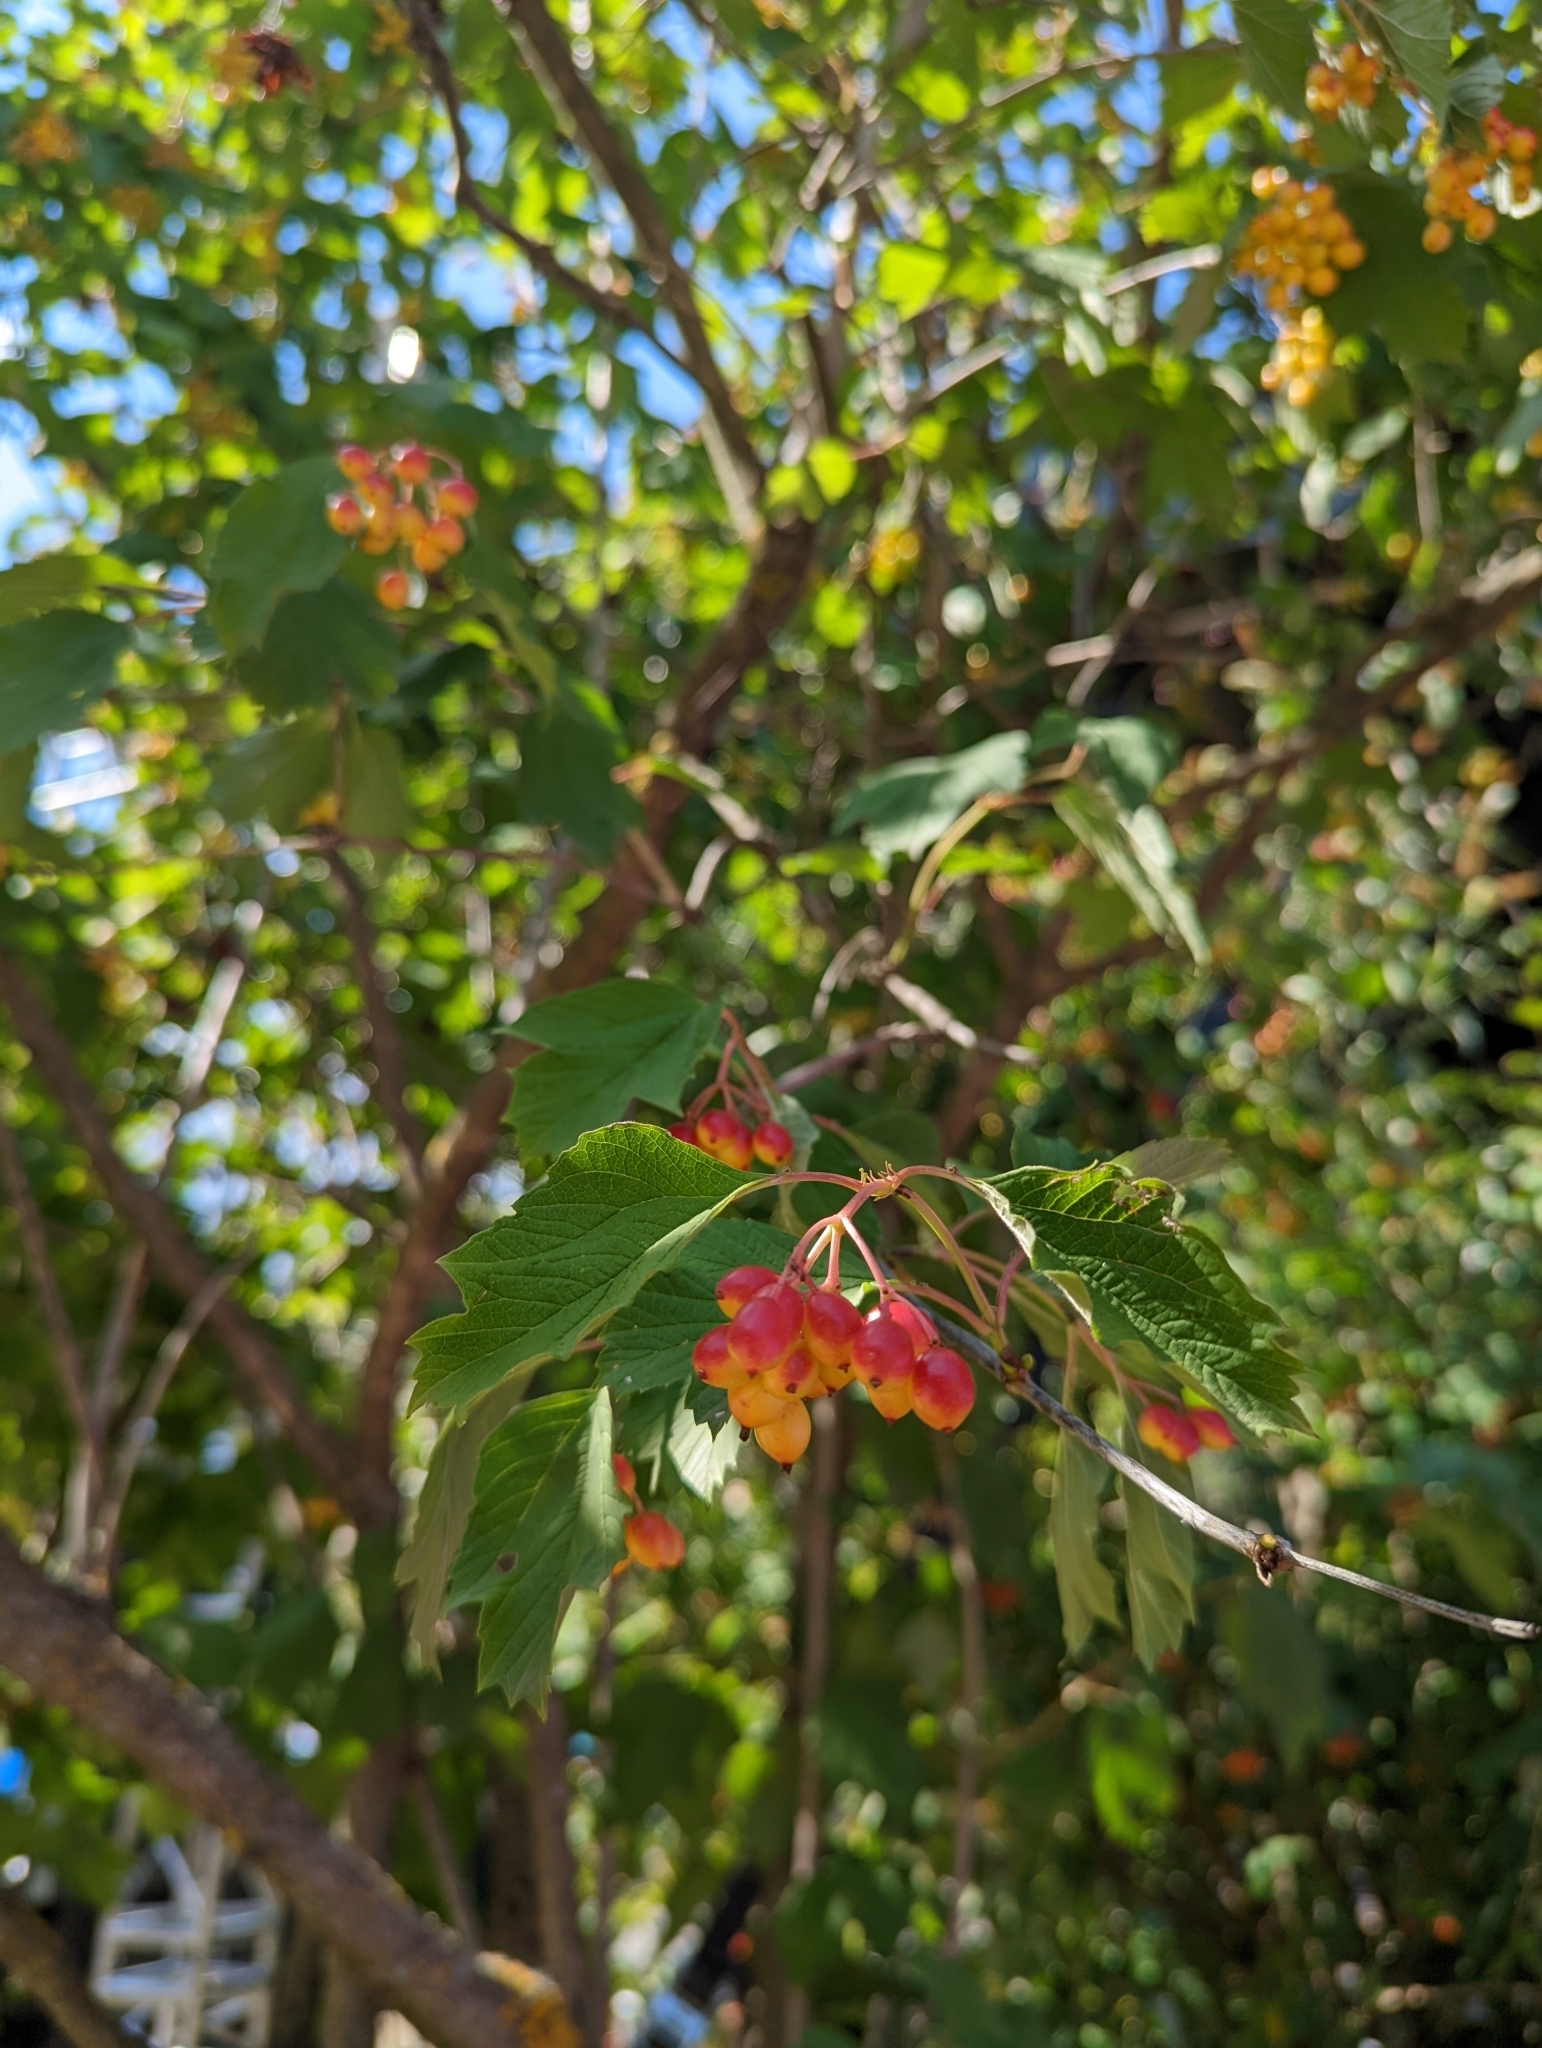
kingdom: Plantae
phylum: Tracheophyta
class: Magnoliopsida
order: Dipsacales
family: Viburnaceae
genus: Viburnum
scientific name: Viburnum opulus
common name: Guelder-rose
